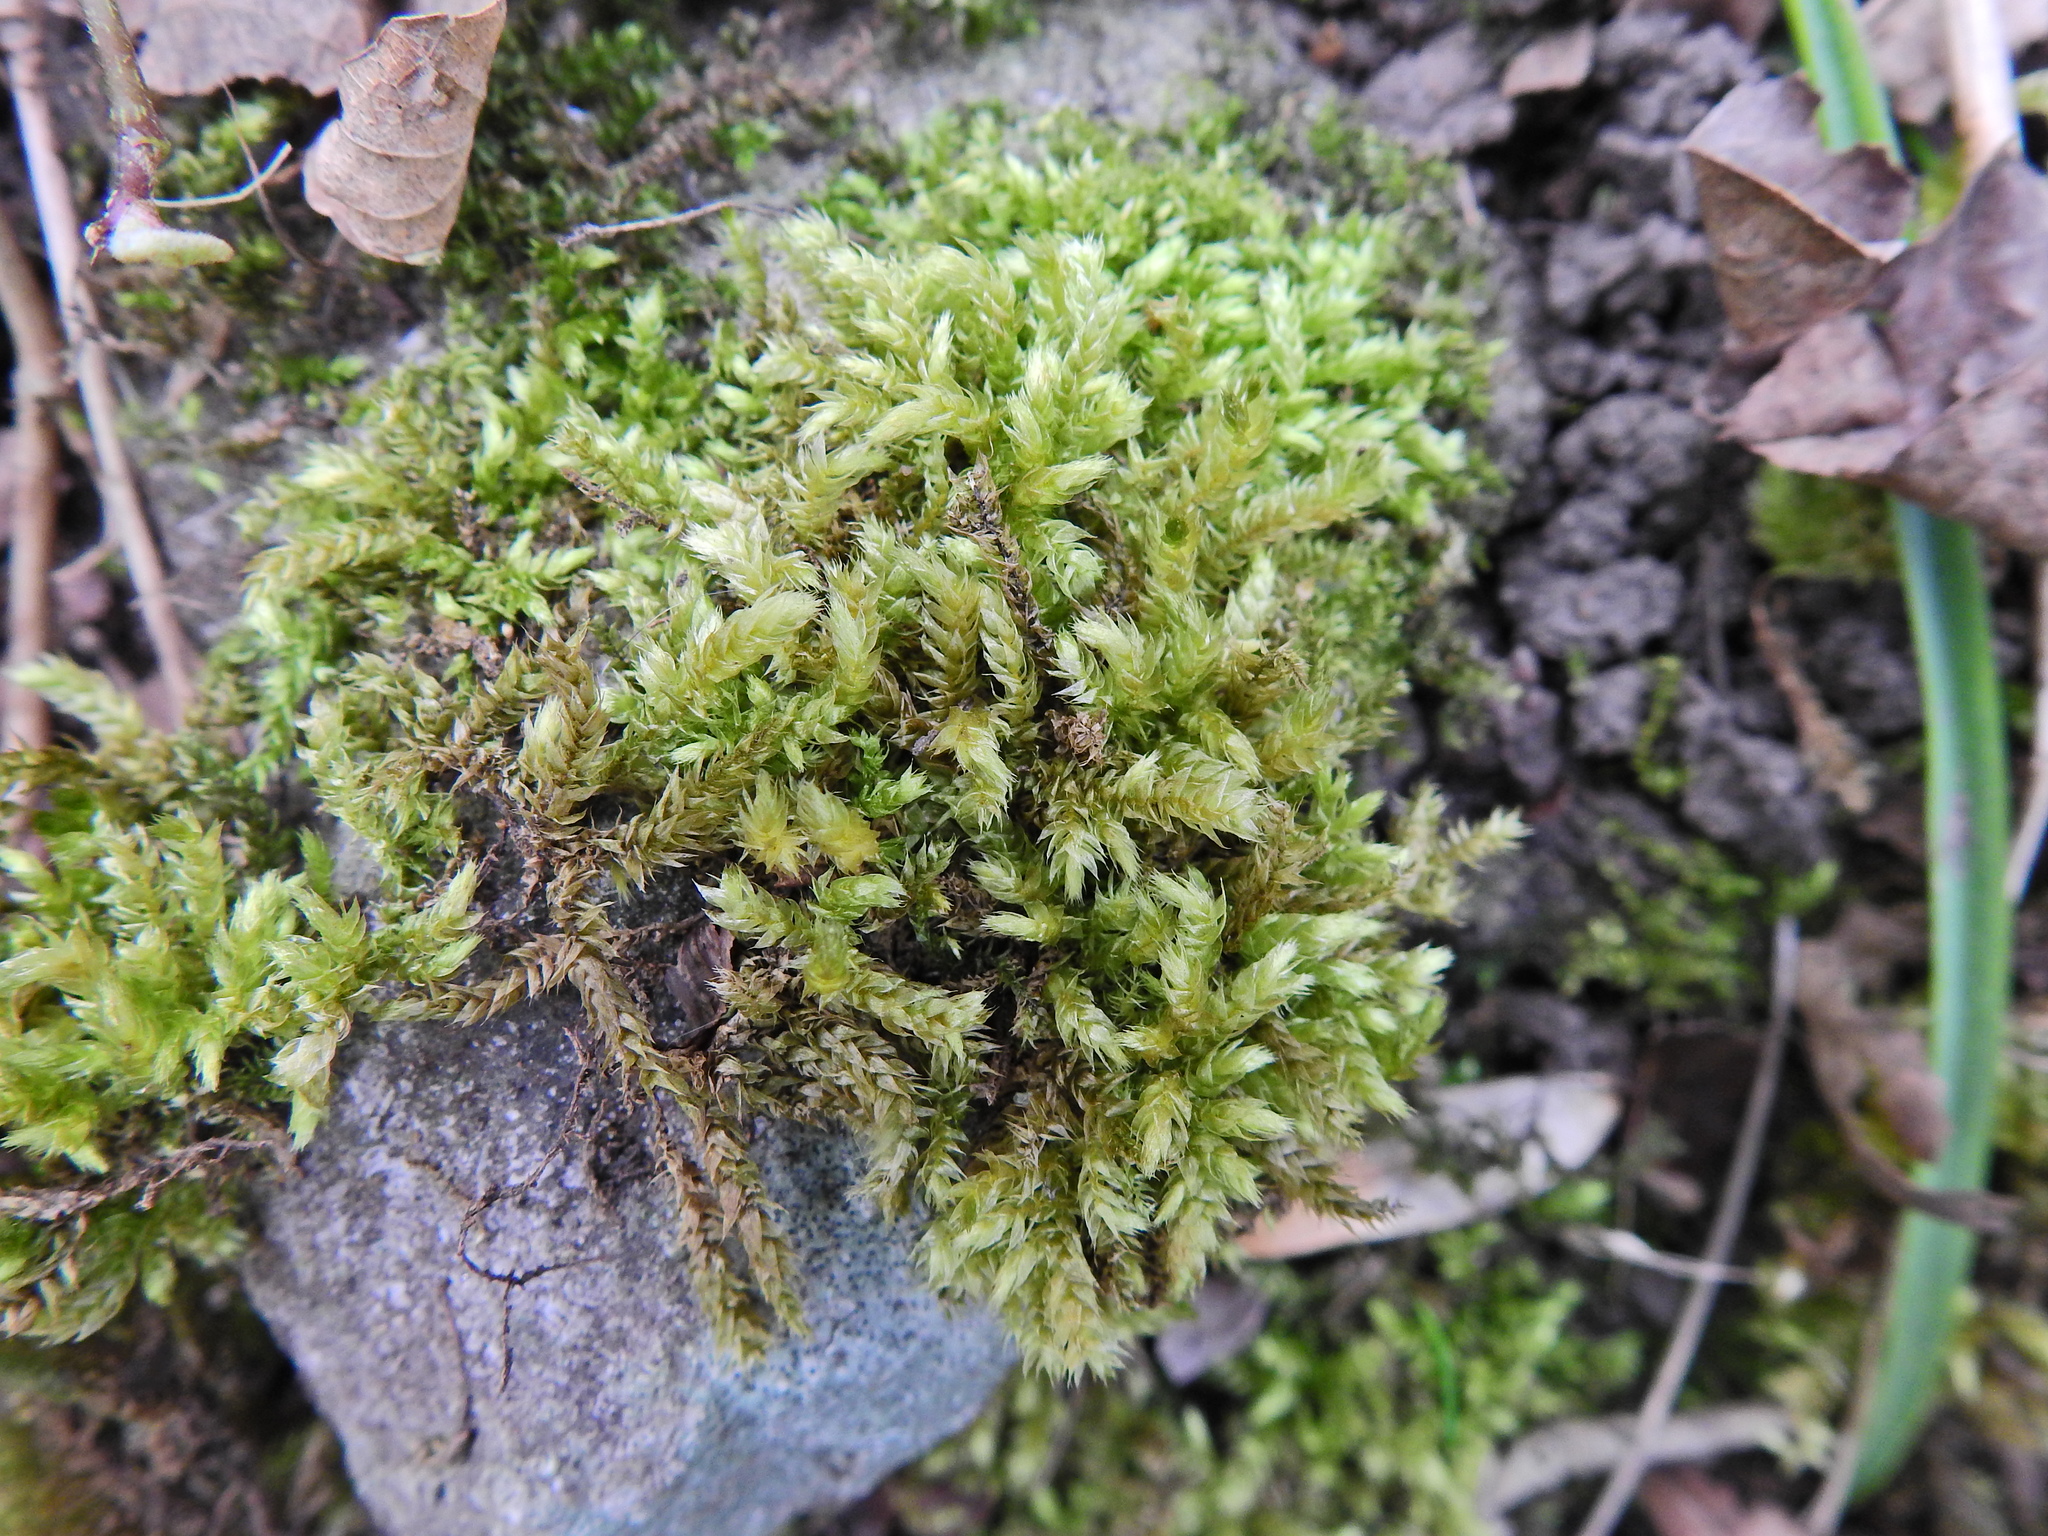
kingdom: Plantae
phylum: Bryophyta
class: Bryopsida
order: Hypnales
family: Brachytheciaceae
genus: Brachythecium
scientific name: Brachythecium rutabulum
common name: Rough-stalked feather-moss
